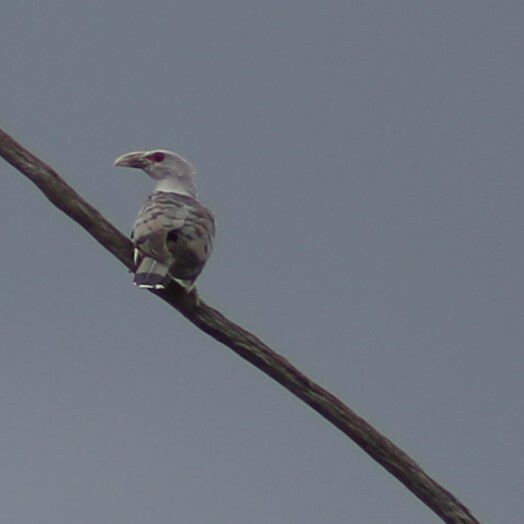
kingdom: Animalia
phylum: Chordata
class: Aves
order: Cuculiformes
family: Cuculidae
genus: Scythrops
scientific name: Scythrops novaehollandiae
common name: Channel-billed cuckoo
